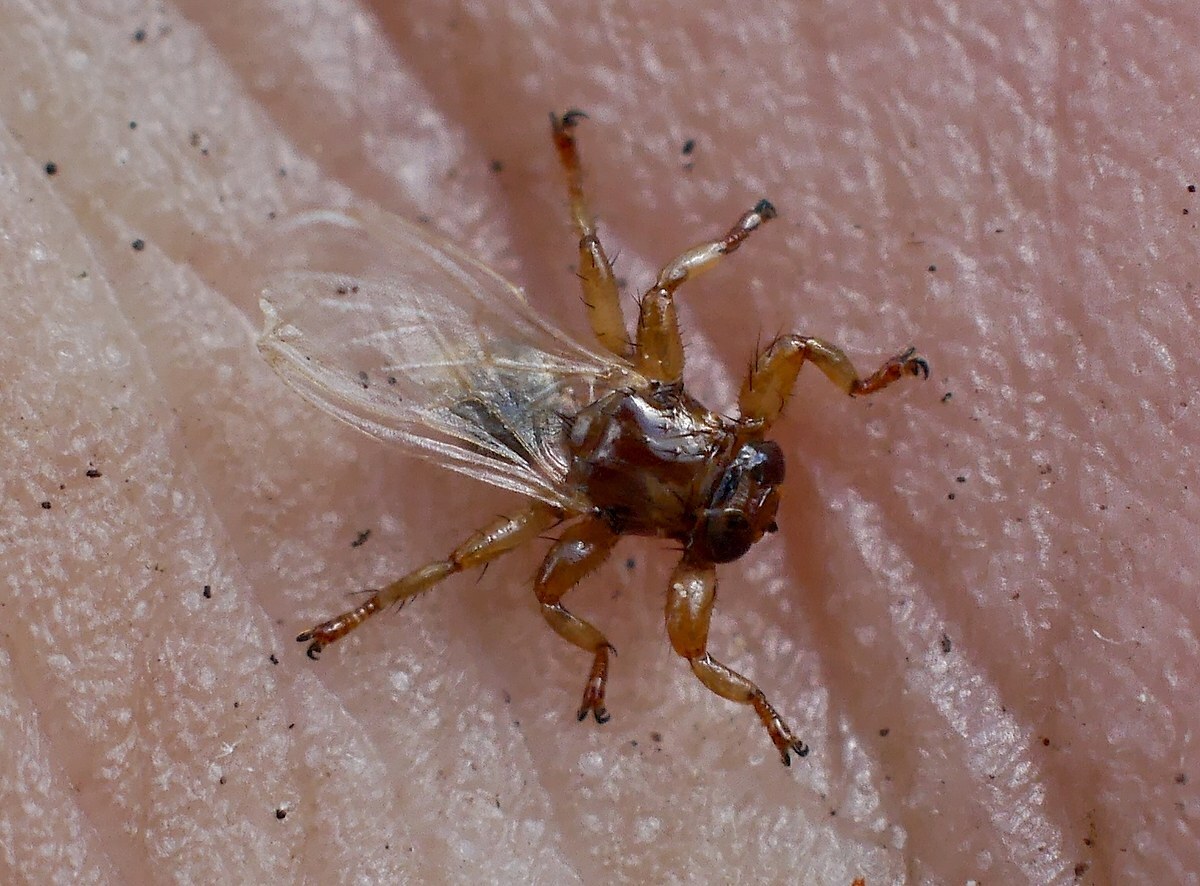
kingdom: Animalia
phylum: Arthropoda
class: Insecta
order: Diptera
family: Hippoboscidae
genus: Lipoptena
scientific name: Lipoptena cervi
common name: Deer ked
